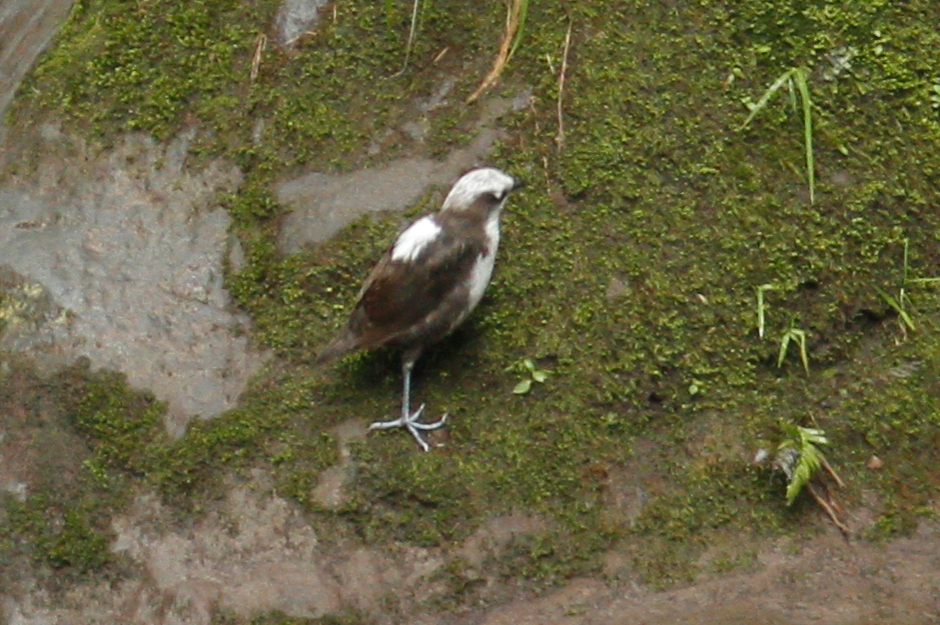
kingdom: Animalia
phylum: Chordata
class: Aves
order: Passeriformes
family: Cinclidae
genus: Cinclus
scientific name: Cinclus leucocephalus
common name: White-capped dipper
